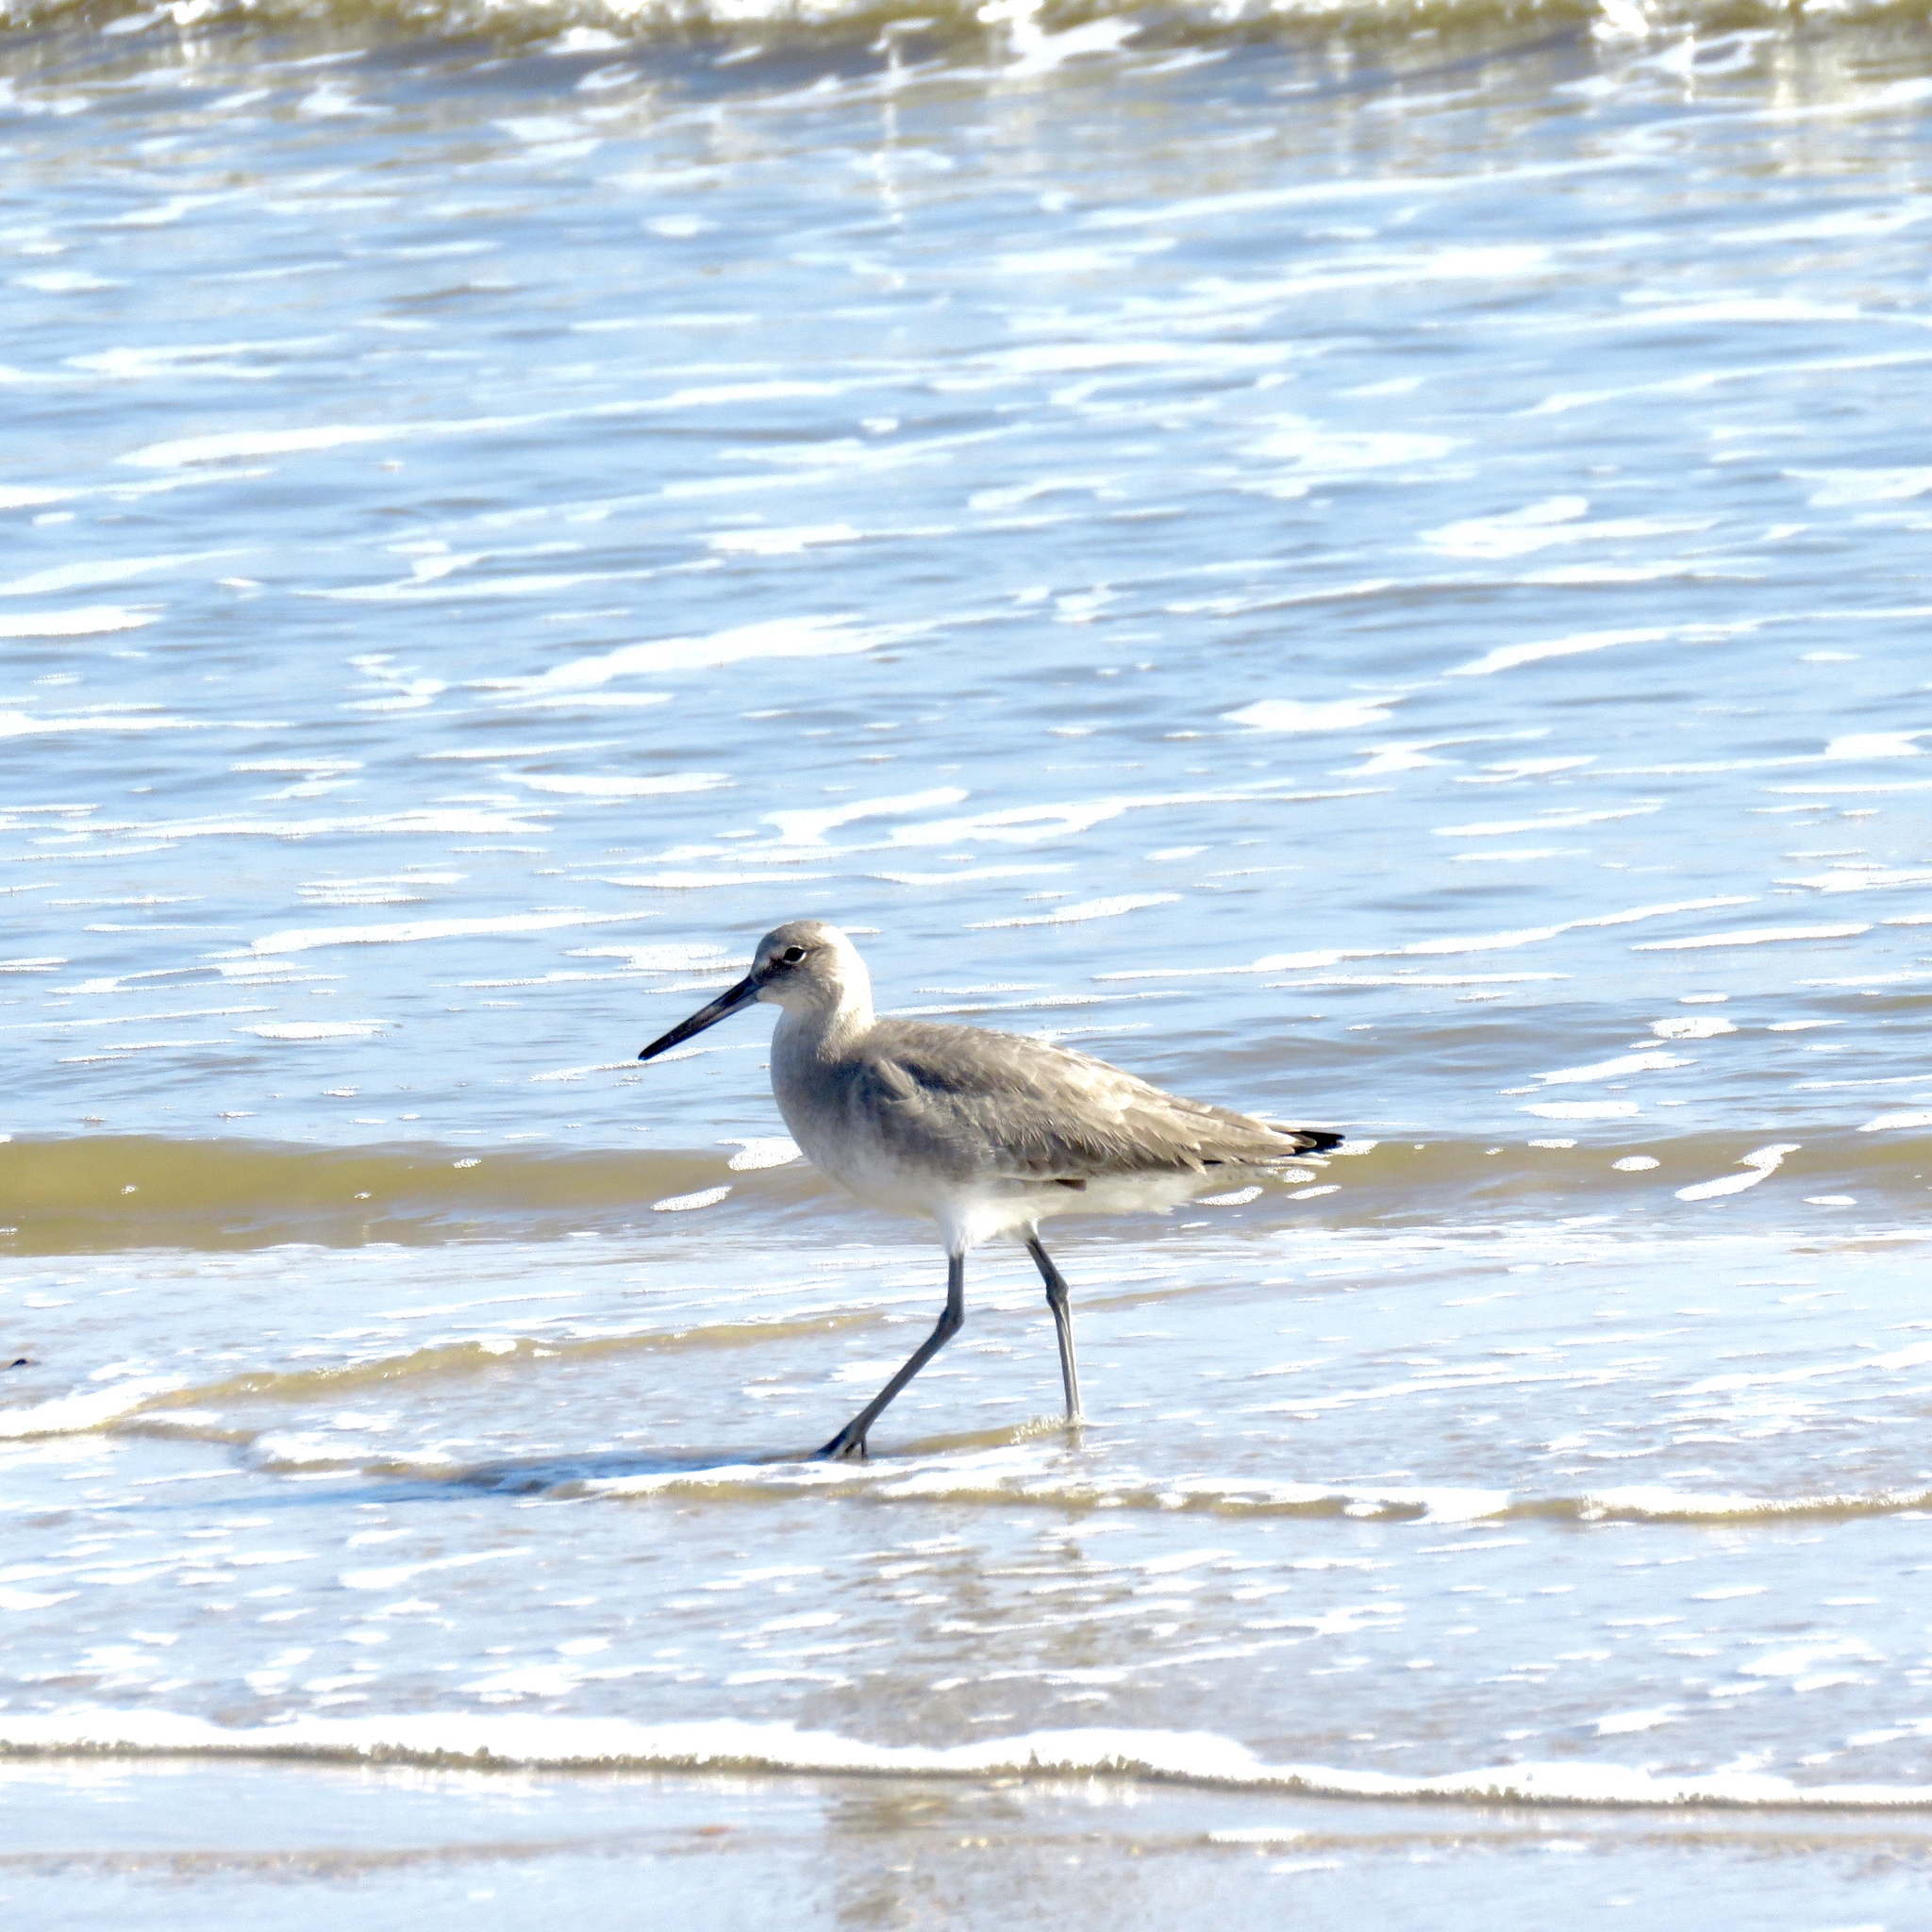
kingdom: Animalia
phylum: Chordata
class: Aves
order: Charadriiformes
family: Scolopacidae
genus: Tringa
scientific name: Tringa semipalmata
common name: Willet
